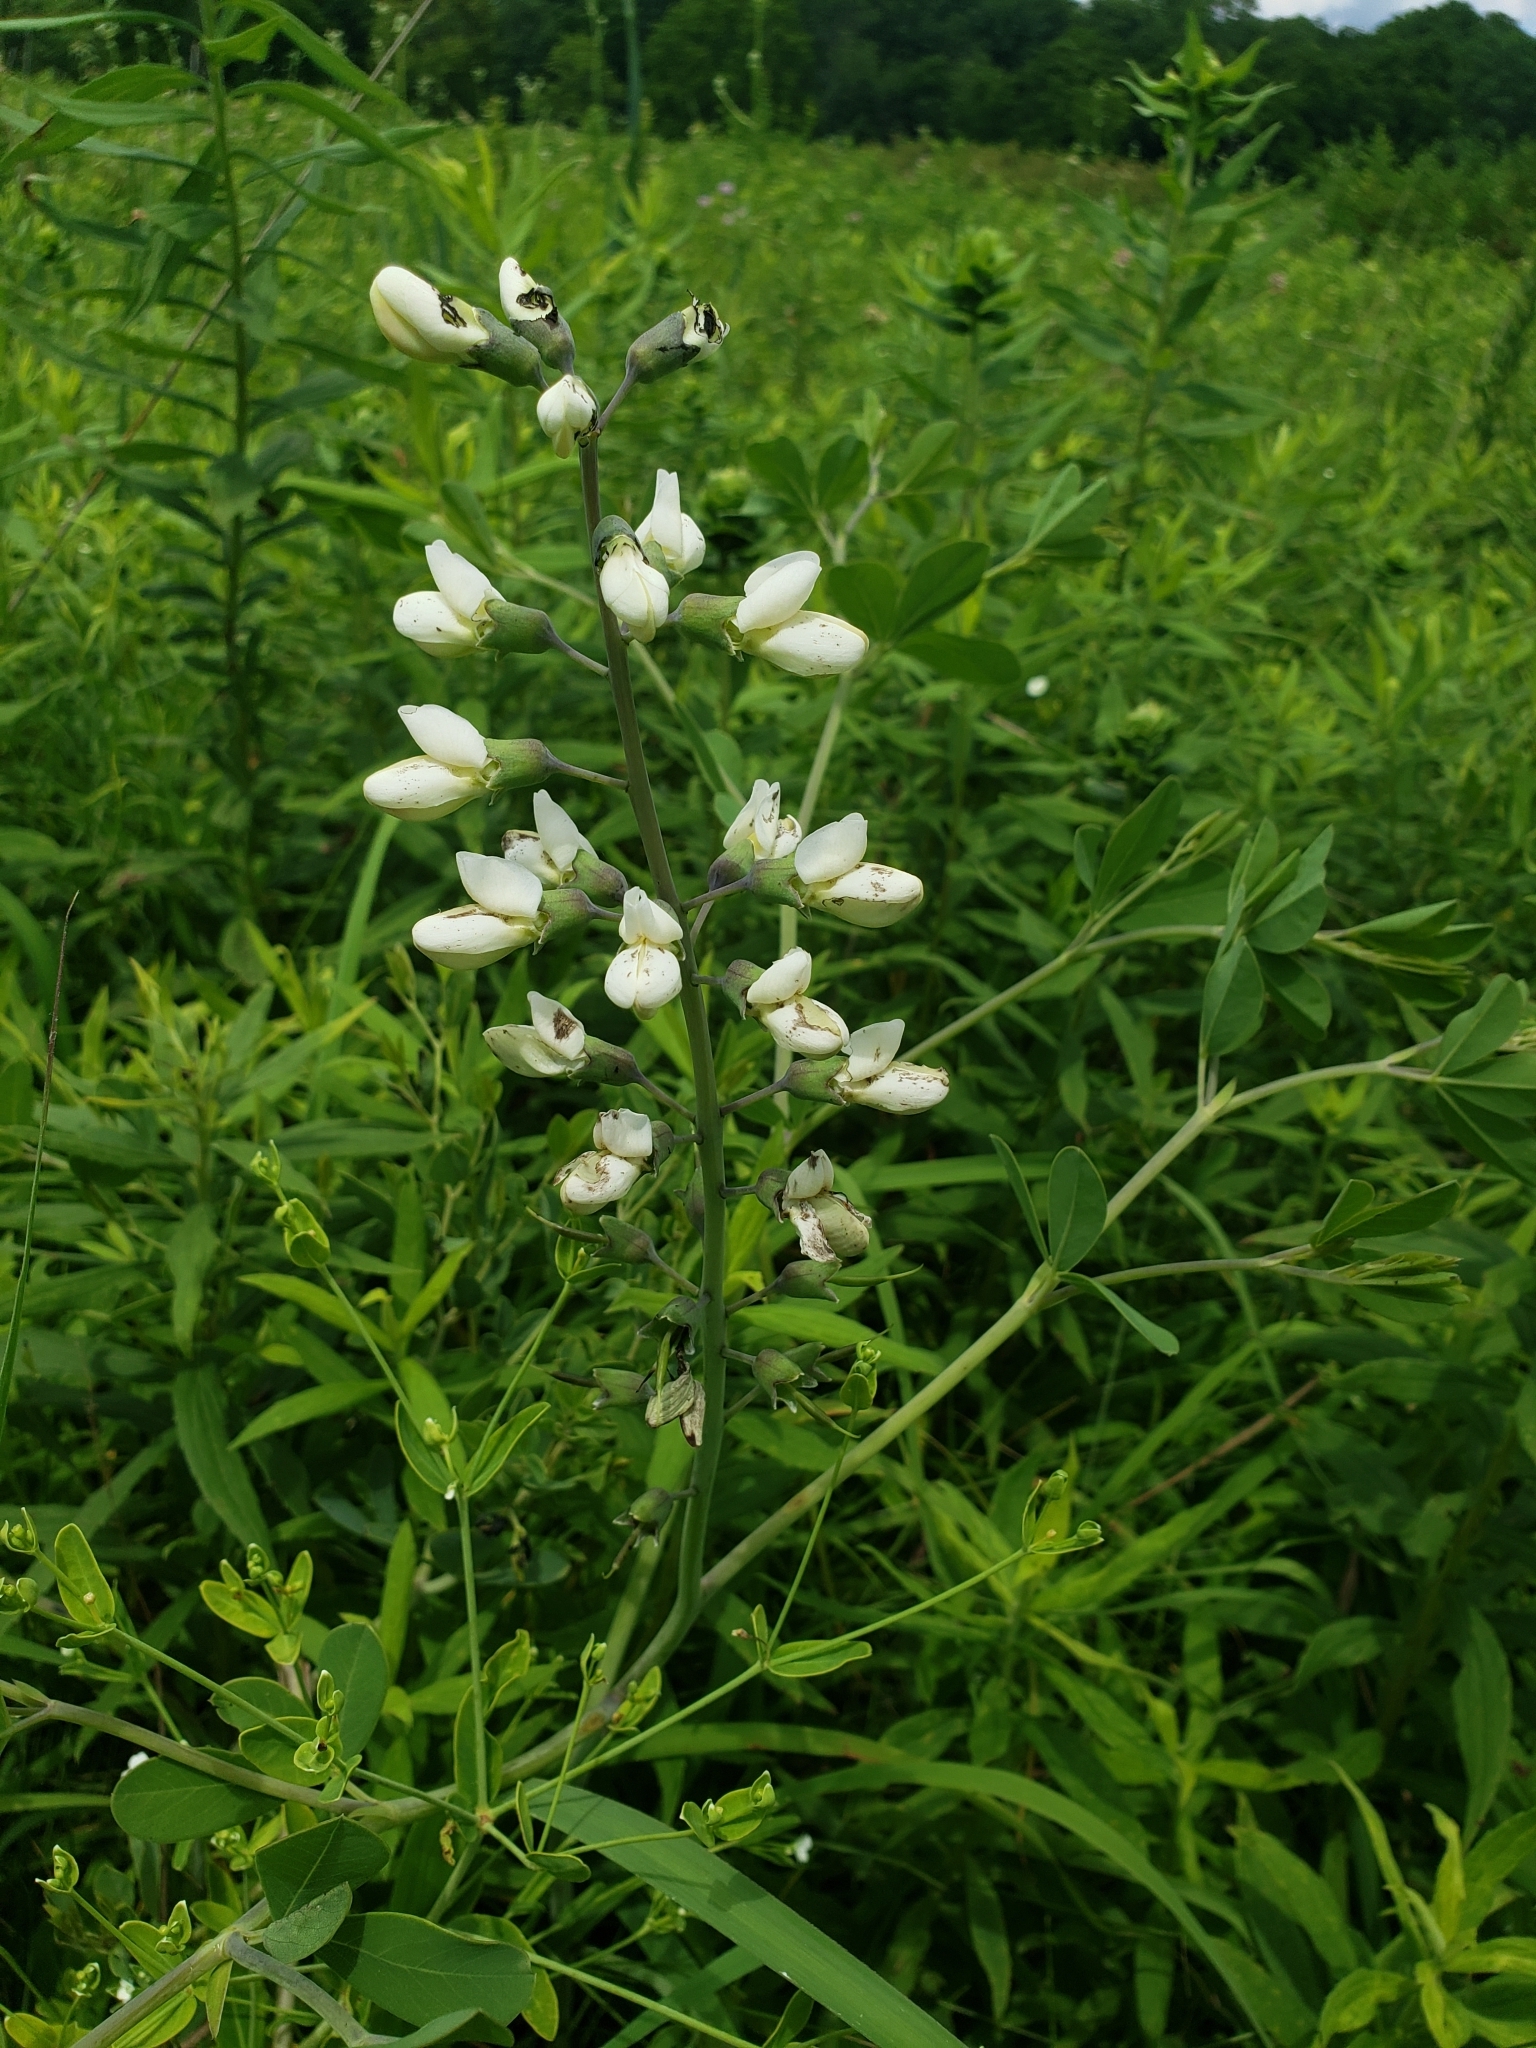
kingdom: Plantae
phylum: Tracheophyta
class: Magnoliopsida
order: Fabales
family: Fabaceae
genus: Baptisia
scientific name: Baptisia alba
